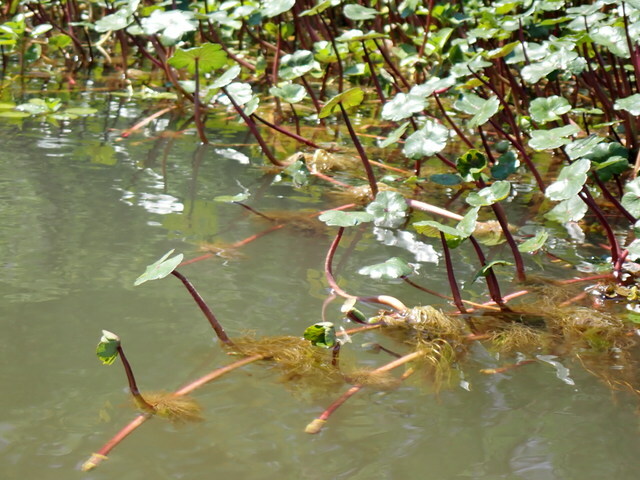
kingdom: Plantae
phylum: Tracheophyta
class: Magnoliopsida
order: Apiales
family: Araliaceae
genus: Hydrocotyle
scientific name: Hydrocotyle ranunculoides
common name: Floating pennywort
